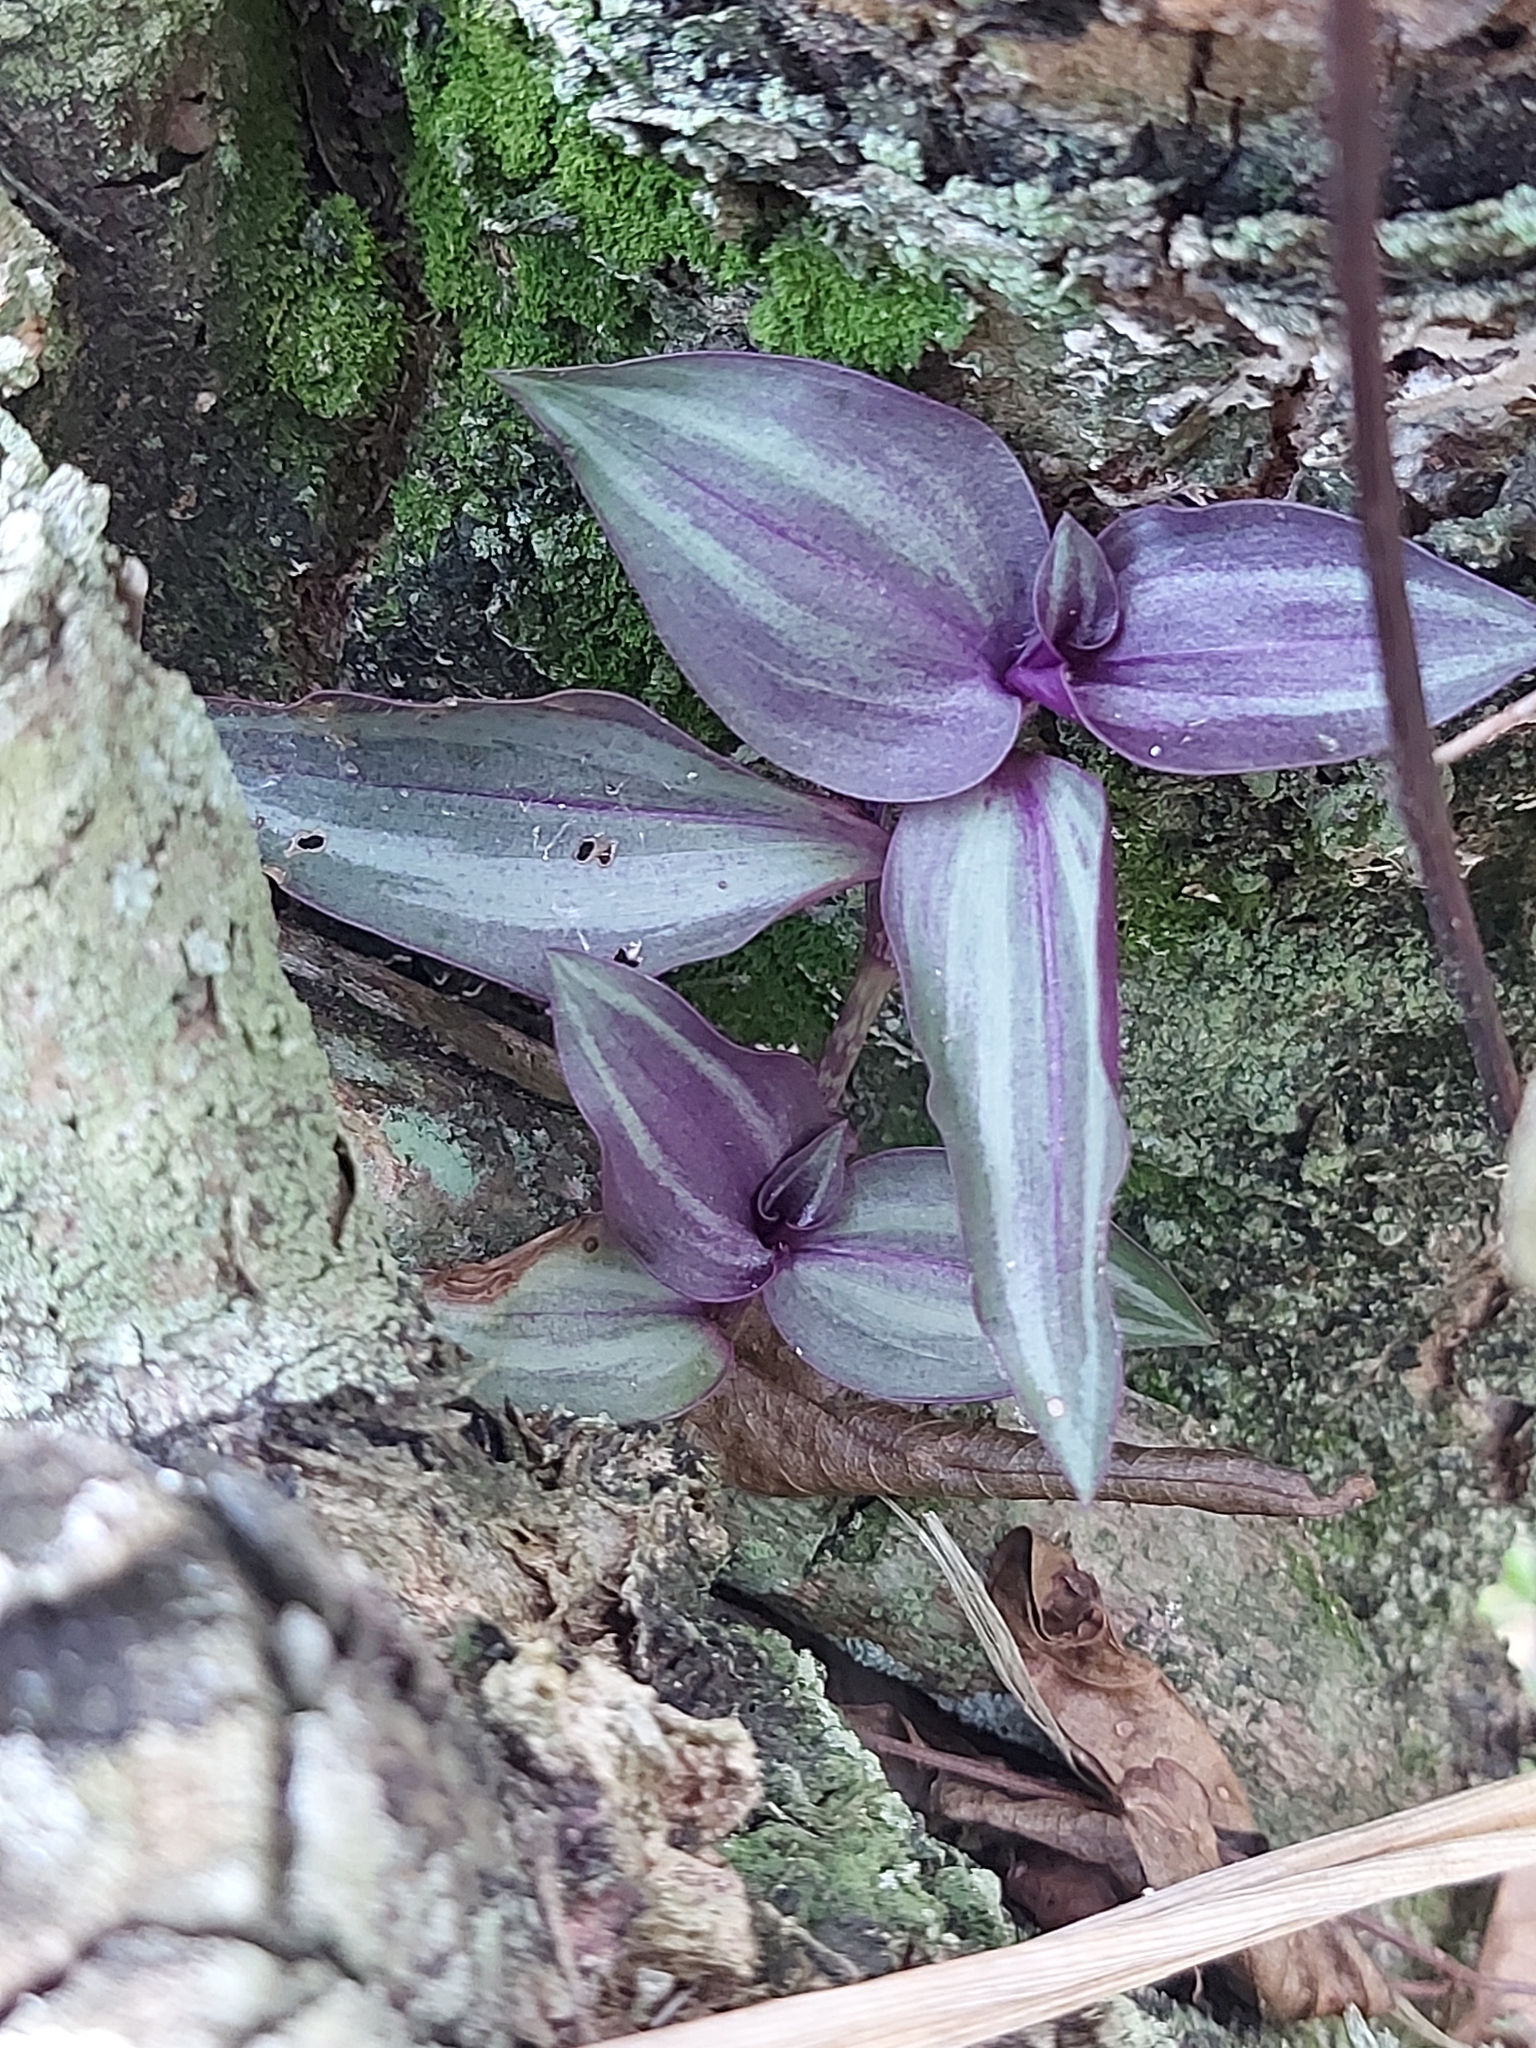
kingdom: Plantae
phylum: Tracheophyta
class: Liliopsida
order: Commelinales
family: Commelinaceae
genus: Tradescantia
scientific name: Tradescantia zebrina
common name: Inchplant
